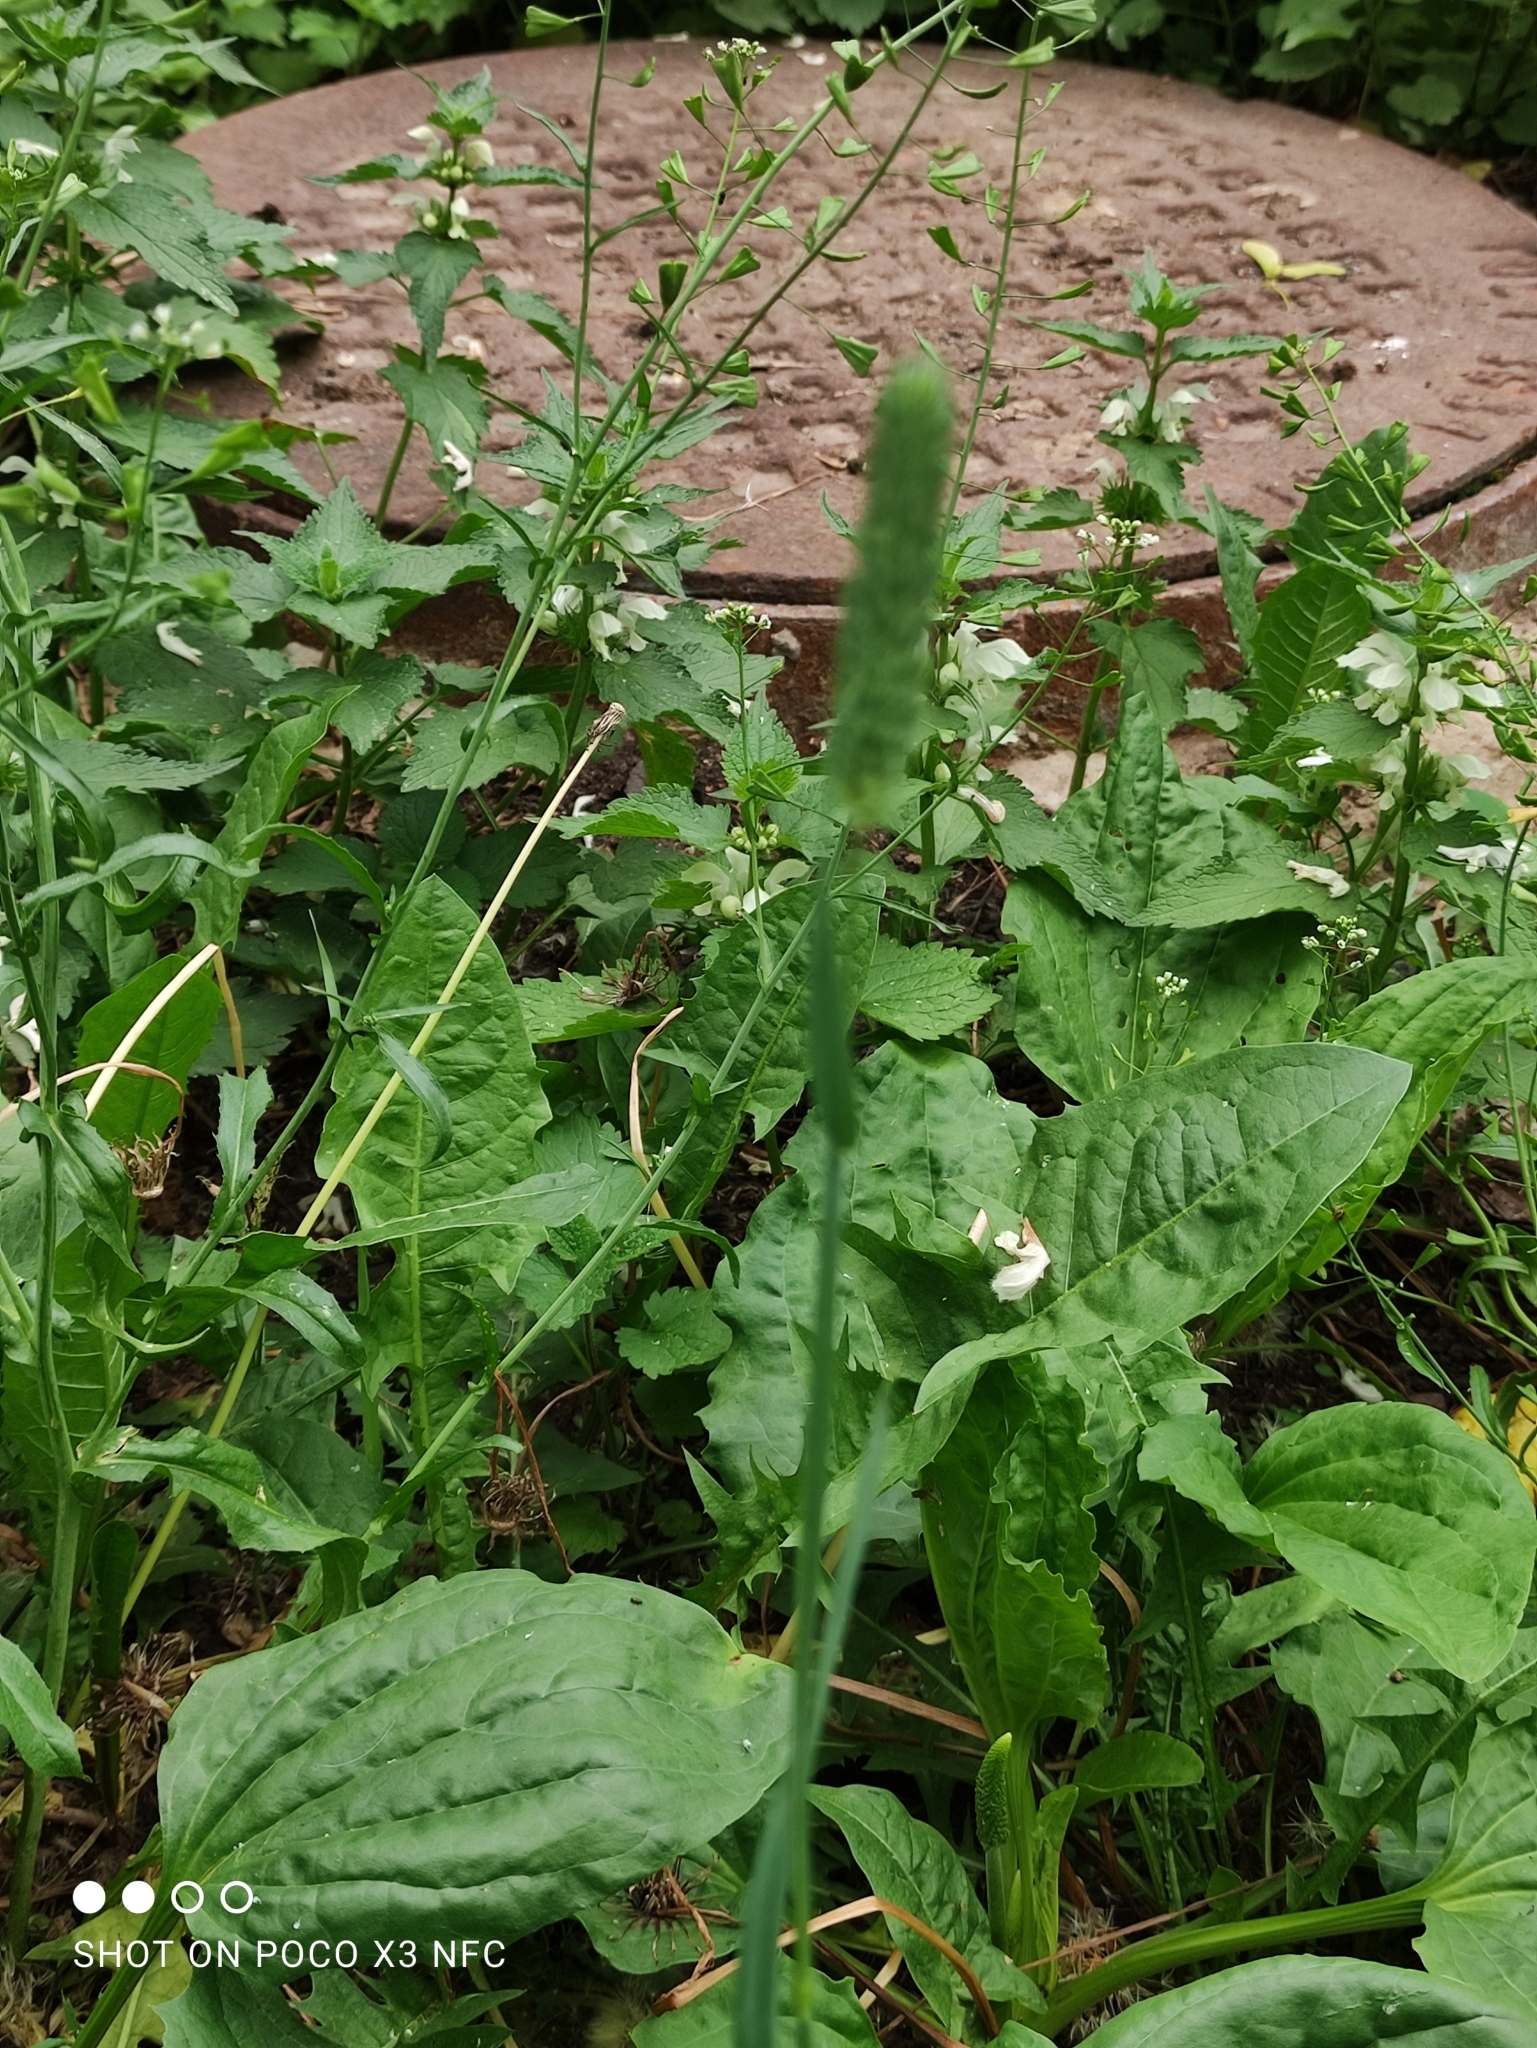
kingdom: Plantae
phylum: Tracheophyta
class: Liliopsida
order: Poales
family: Poaceae
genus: Phleum
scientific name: Phleum pratense
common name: Timothy grass
